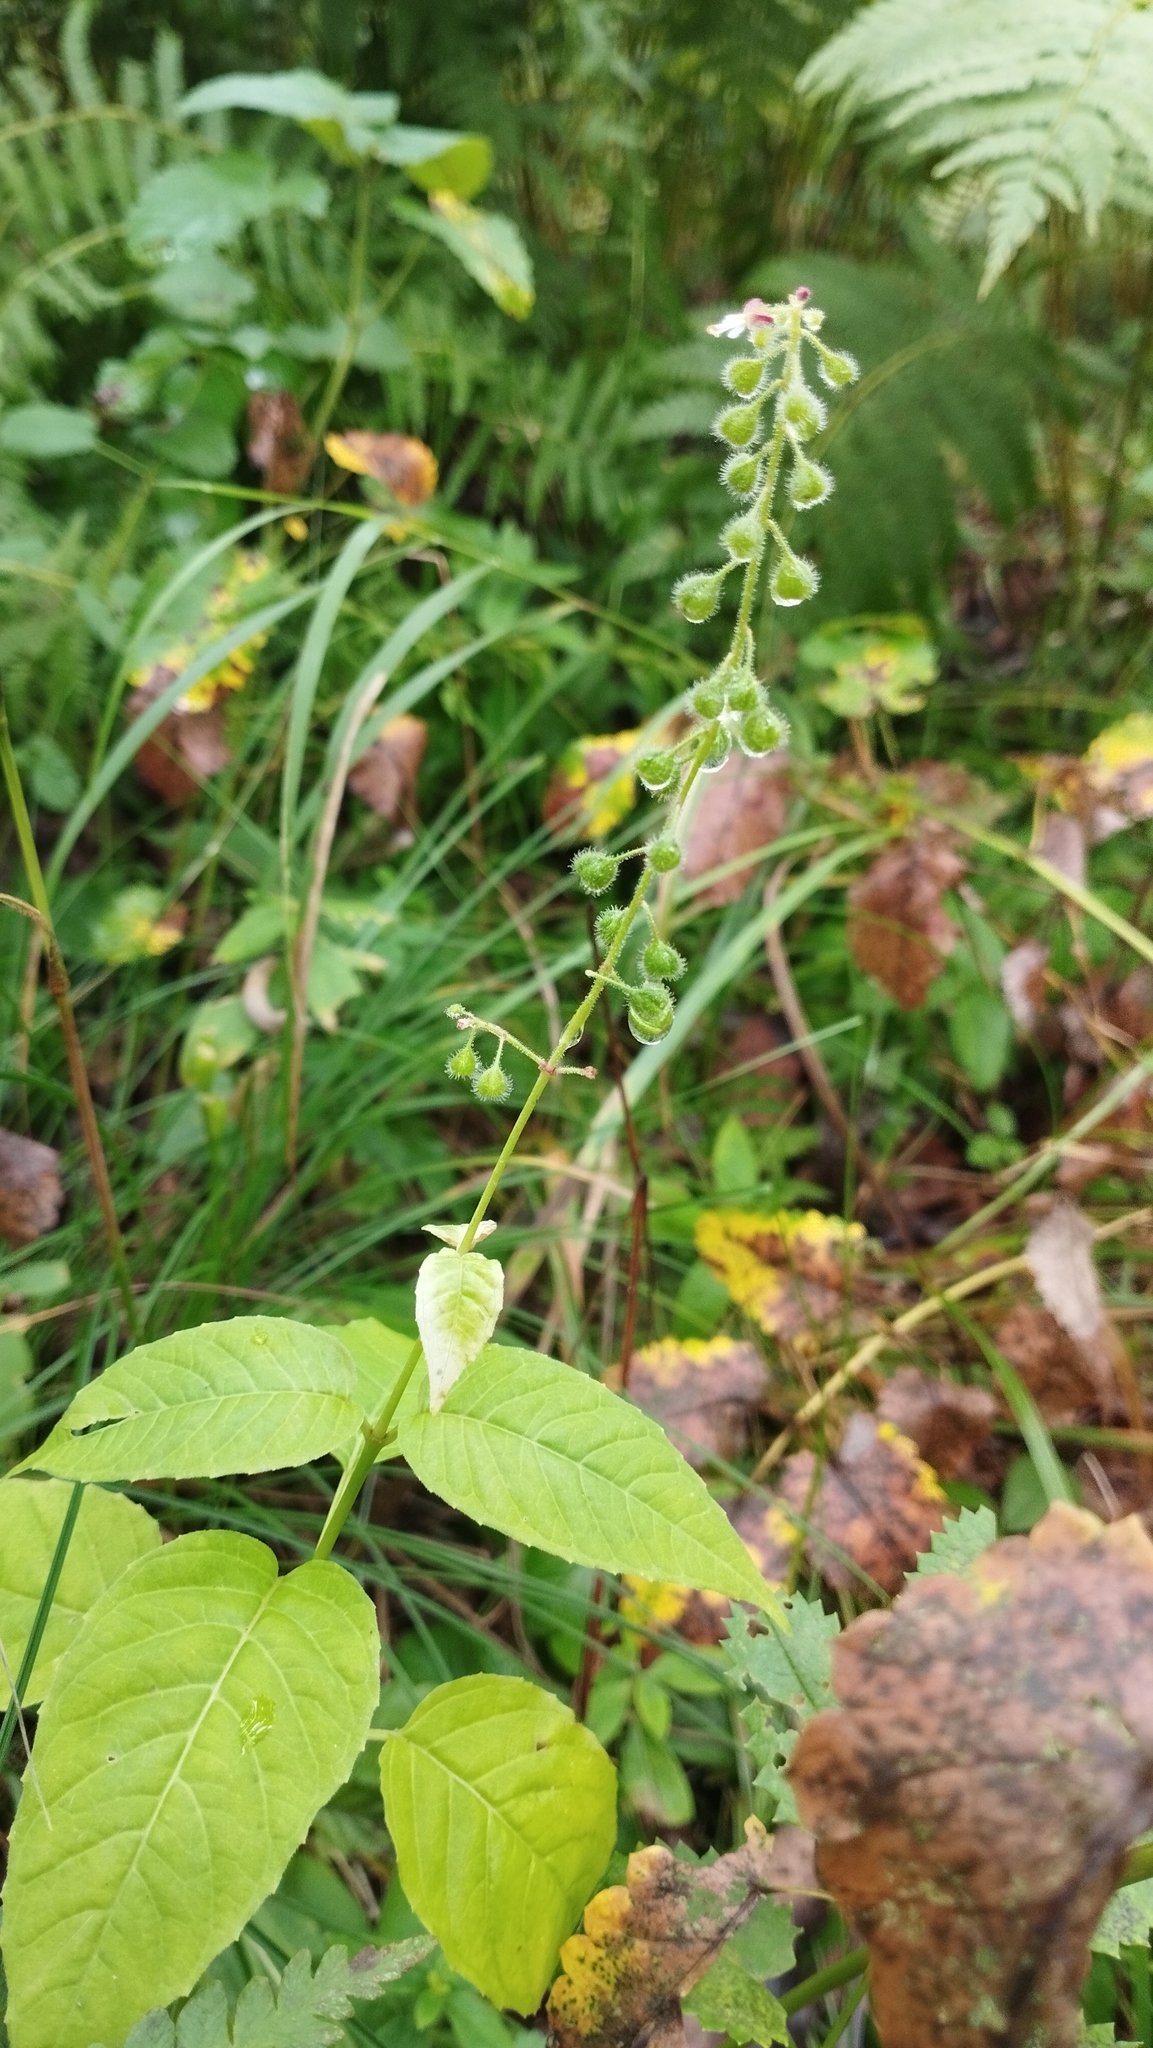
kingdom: Plantae
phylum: Tracheophyta
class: Magnoliopsida
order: Myrtales
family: Onagraceae
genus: Circaea
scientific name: Circaea canadensis
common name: Broad-leaved enchanter's nightshade
